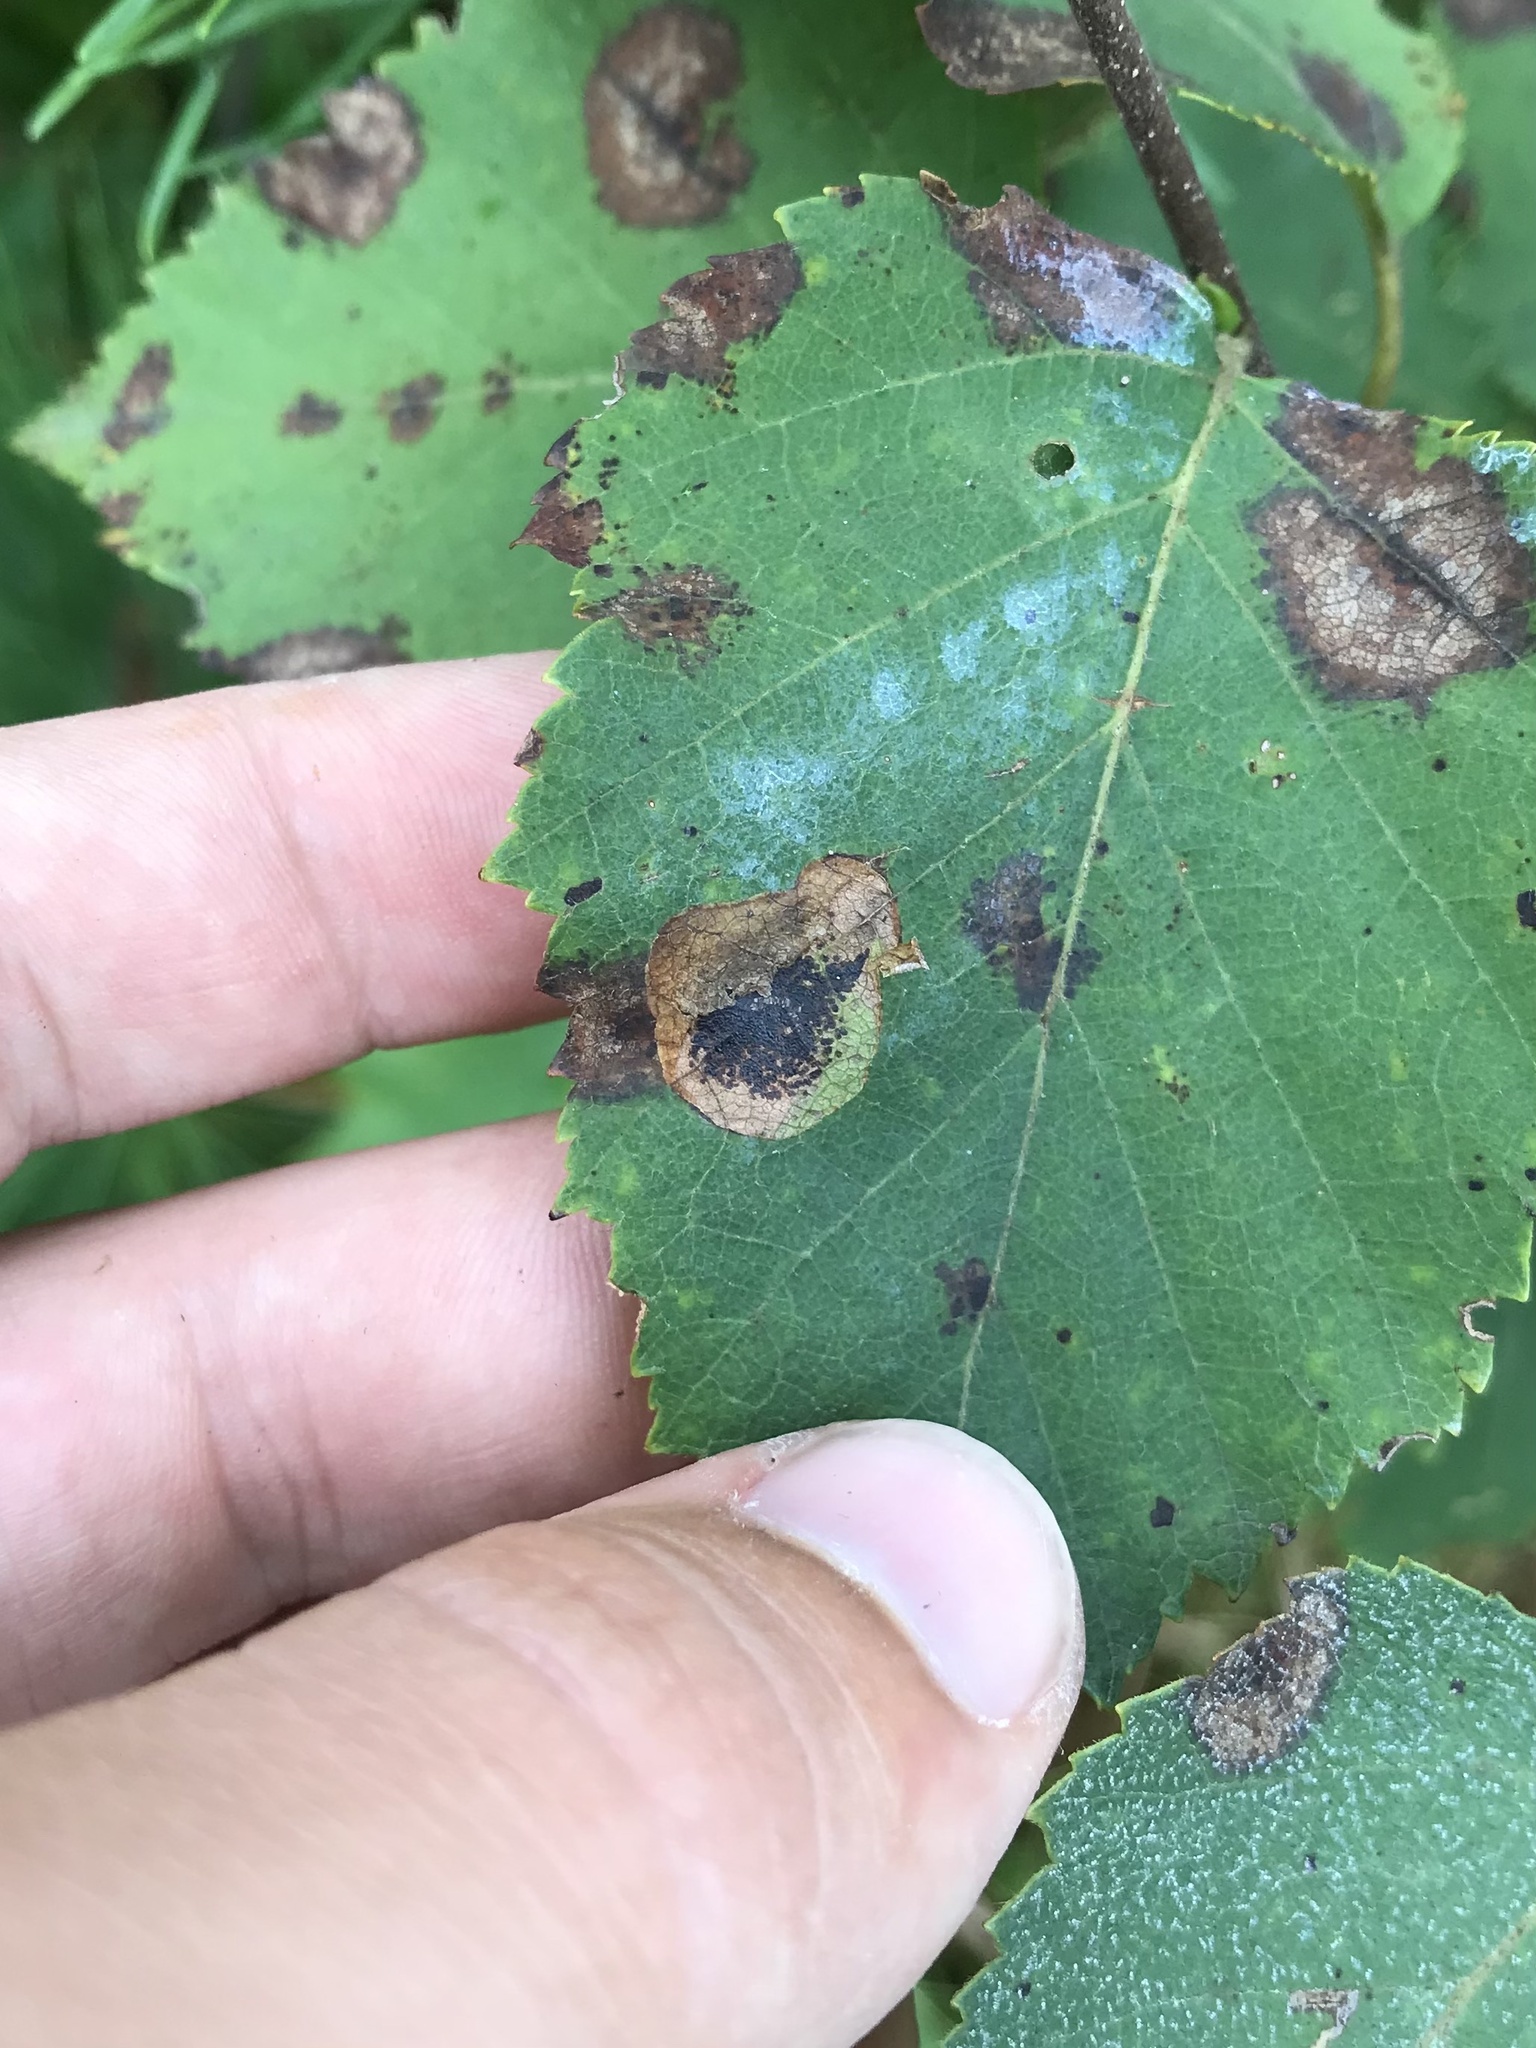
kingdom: Animalia
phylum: Arthropoda
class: Insecta
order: Lepidoptera
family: Gracillariidae
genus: Cameraria
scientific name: Cameraria betulivora
